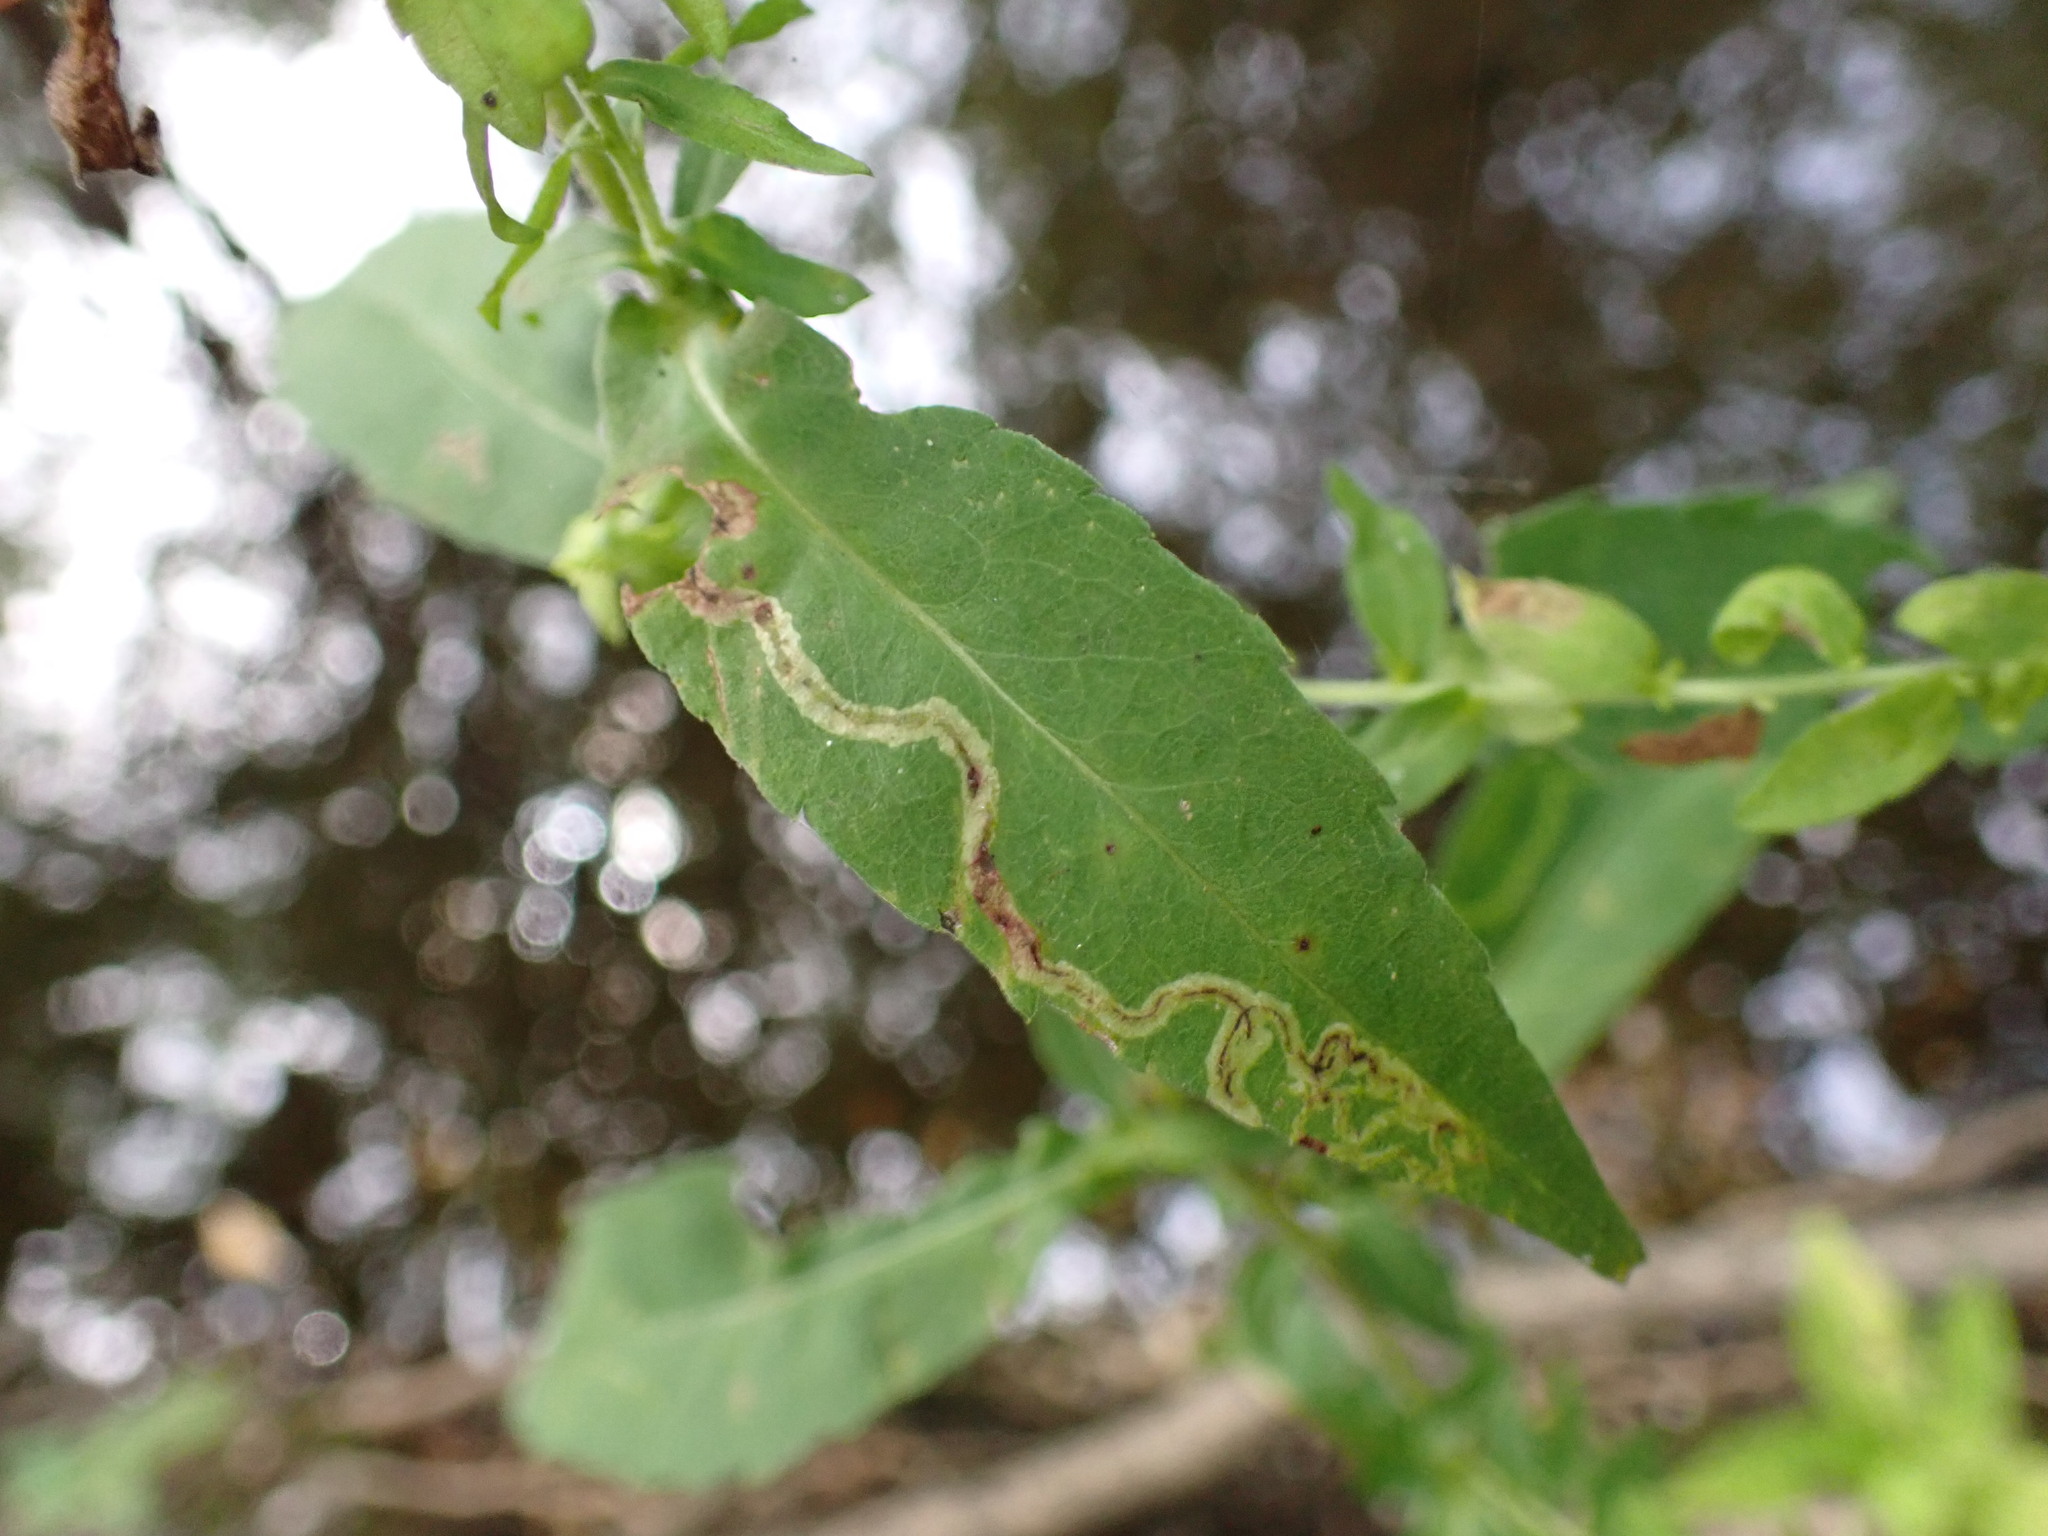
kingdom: Animalia
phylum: Arthropoda
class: Insecta
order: Diptera
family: Agromyzidae
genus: Liriomyza
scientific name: Liriomyza eupatorii
